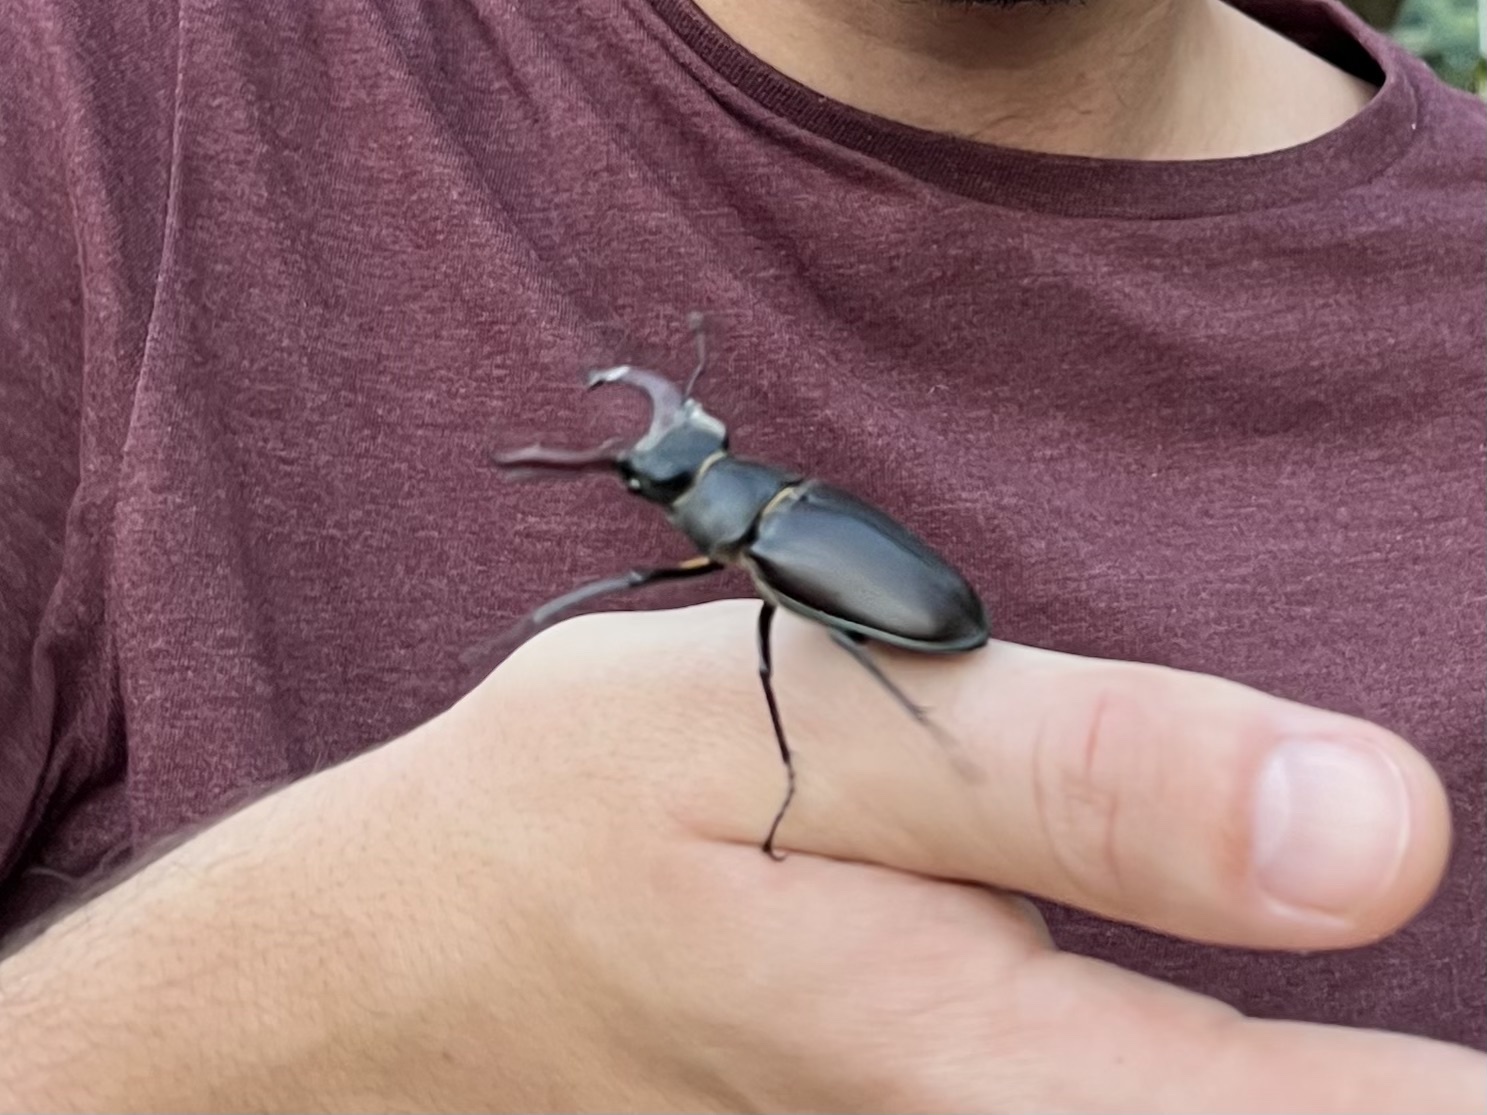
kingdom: Animalia
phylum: Arthropoda
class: Insecta
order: Coleoptera
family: Lucanidae
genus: Lucanus
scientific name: Lucanus cervus
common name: Stag beetle
